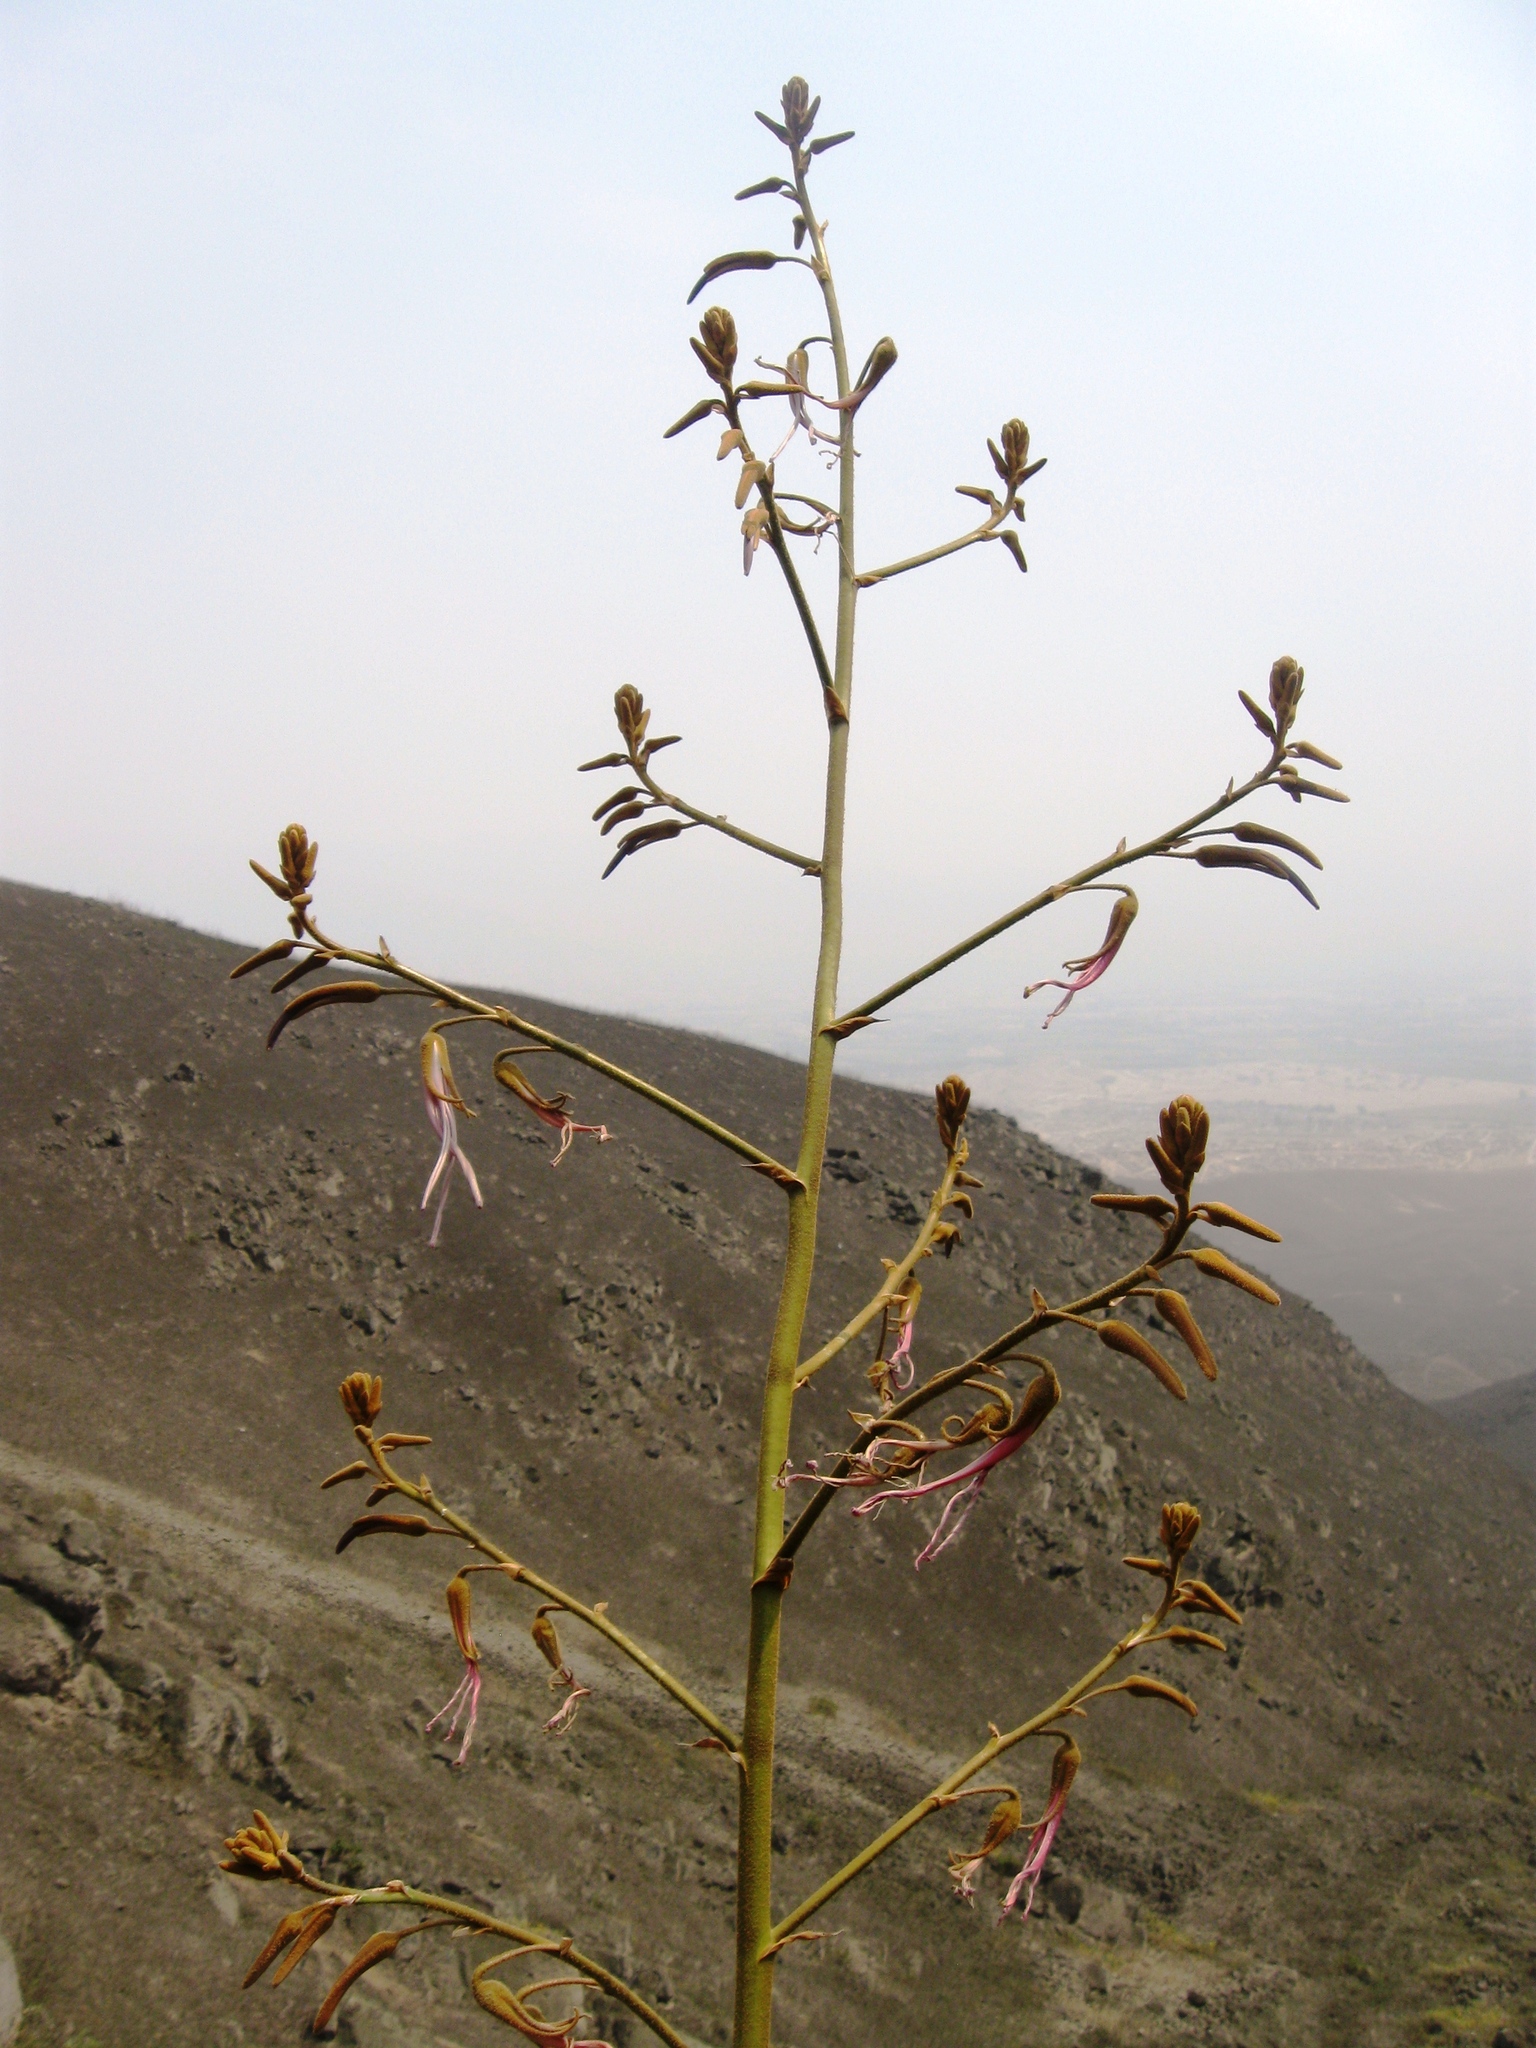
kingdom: Plantae
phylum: Tracheophyta
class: Liliopsida
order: Poales
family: Bromeliaceae
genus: Puya
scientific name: Puya ferruginea
